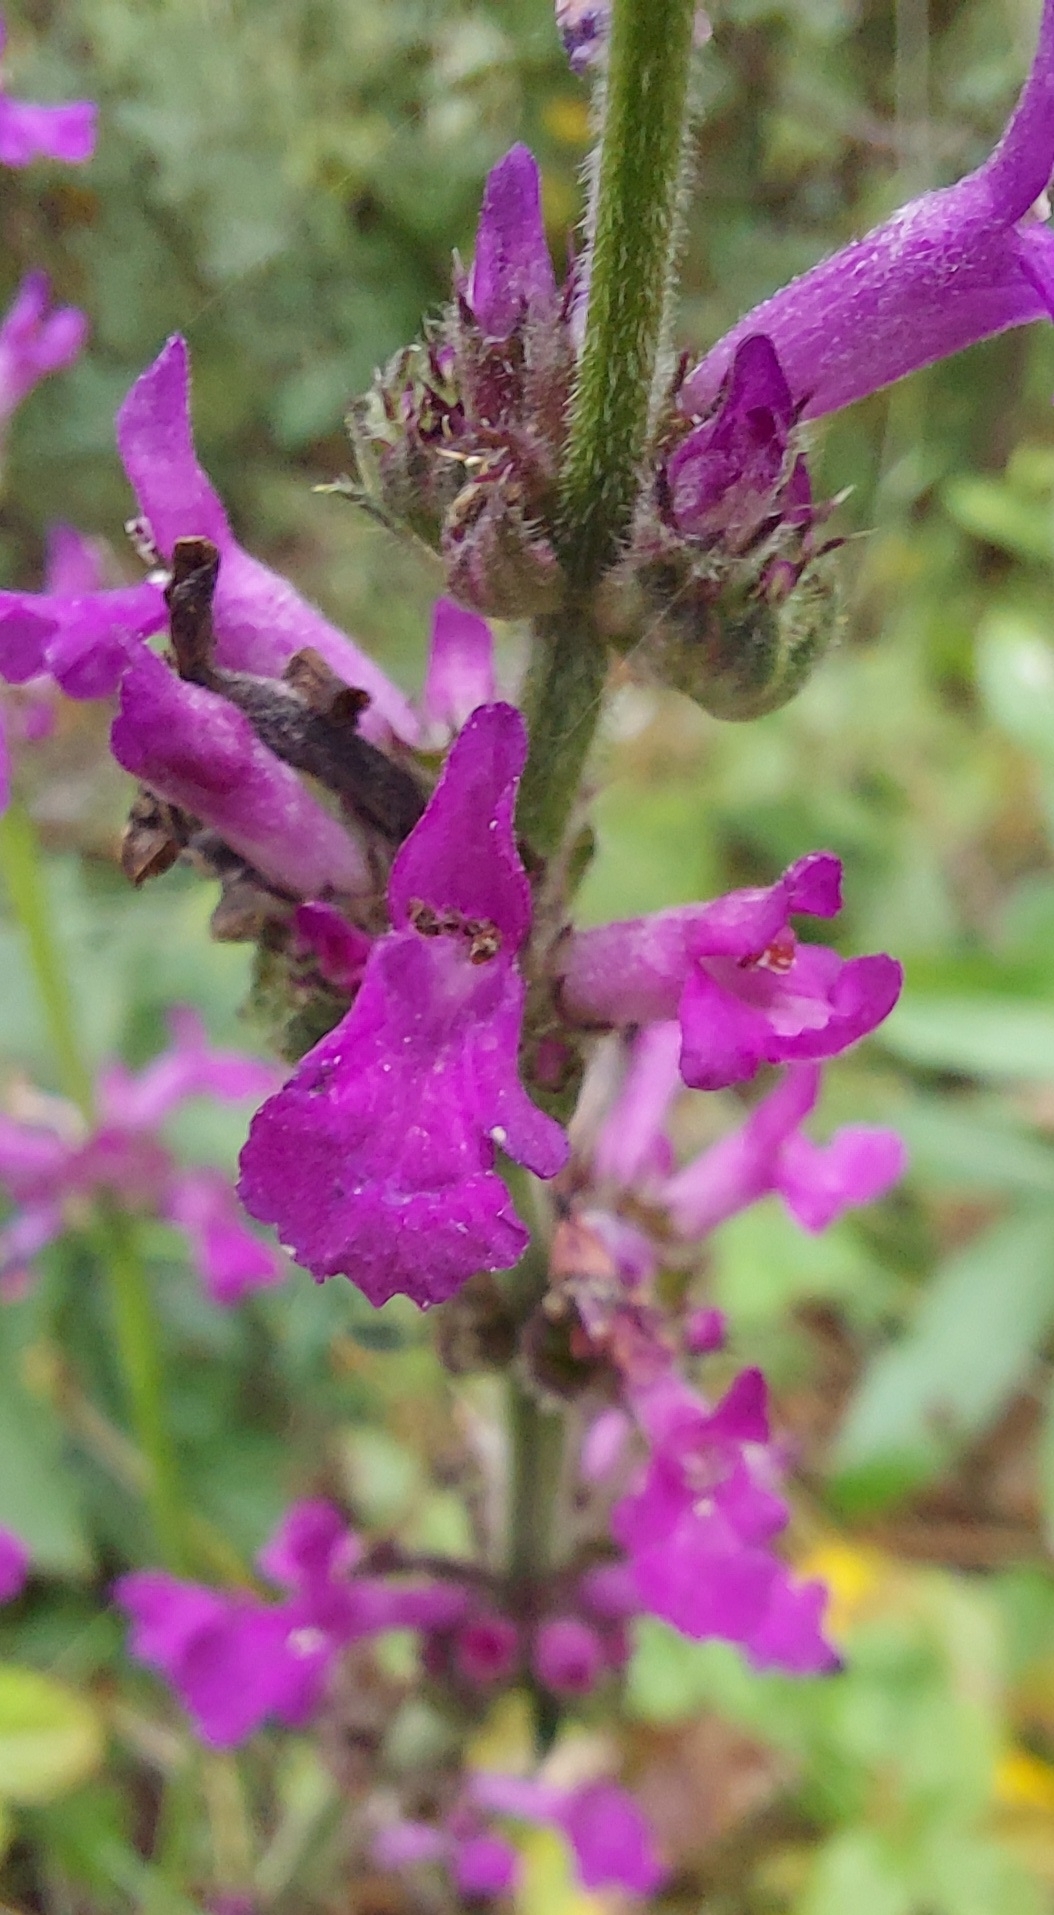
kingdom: Plantae
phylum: Tracheophyta
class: Magnoliopsida
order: Lamiales
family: Lamiaceae
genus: Betonica
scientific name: Betonica officinalis
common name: Bishop's-wort
